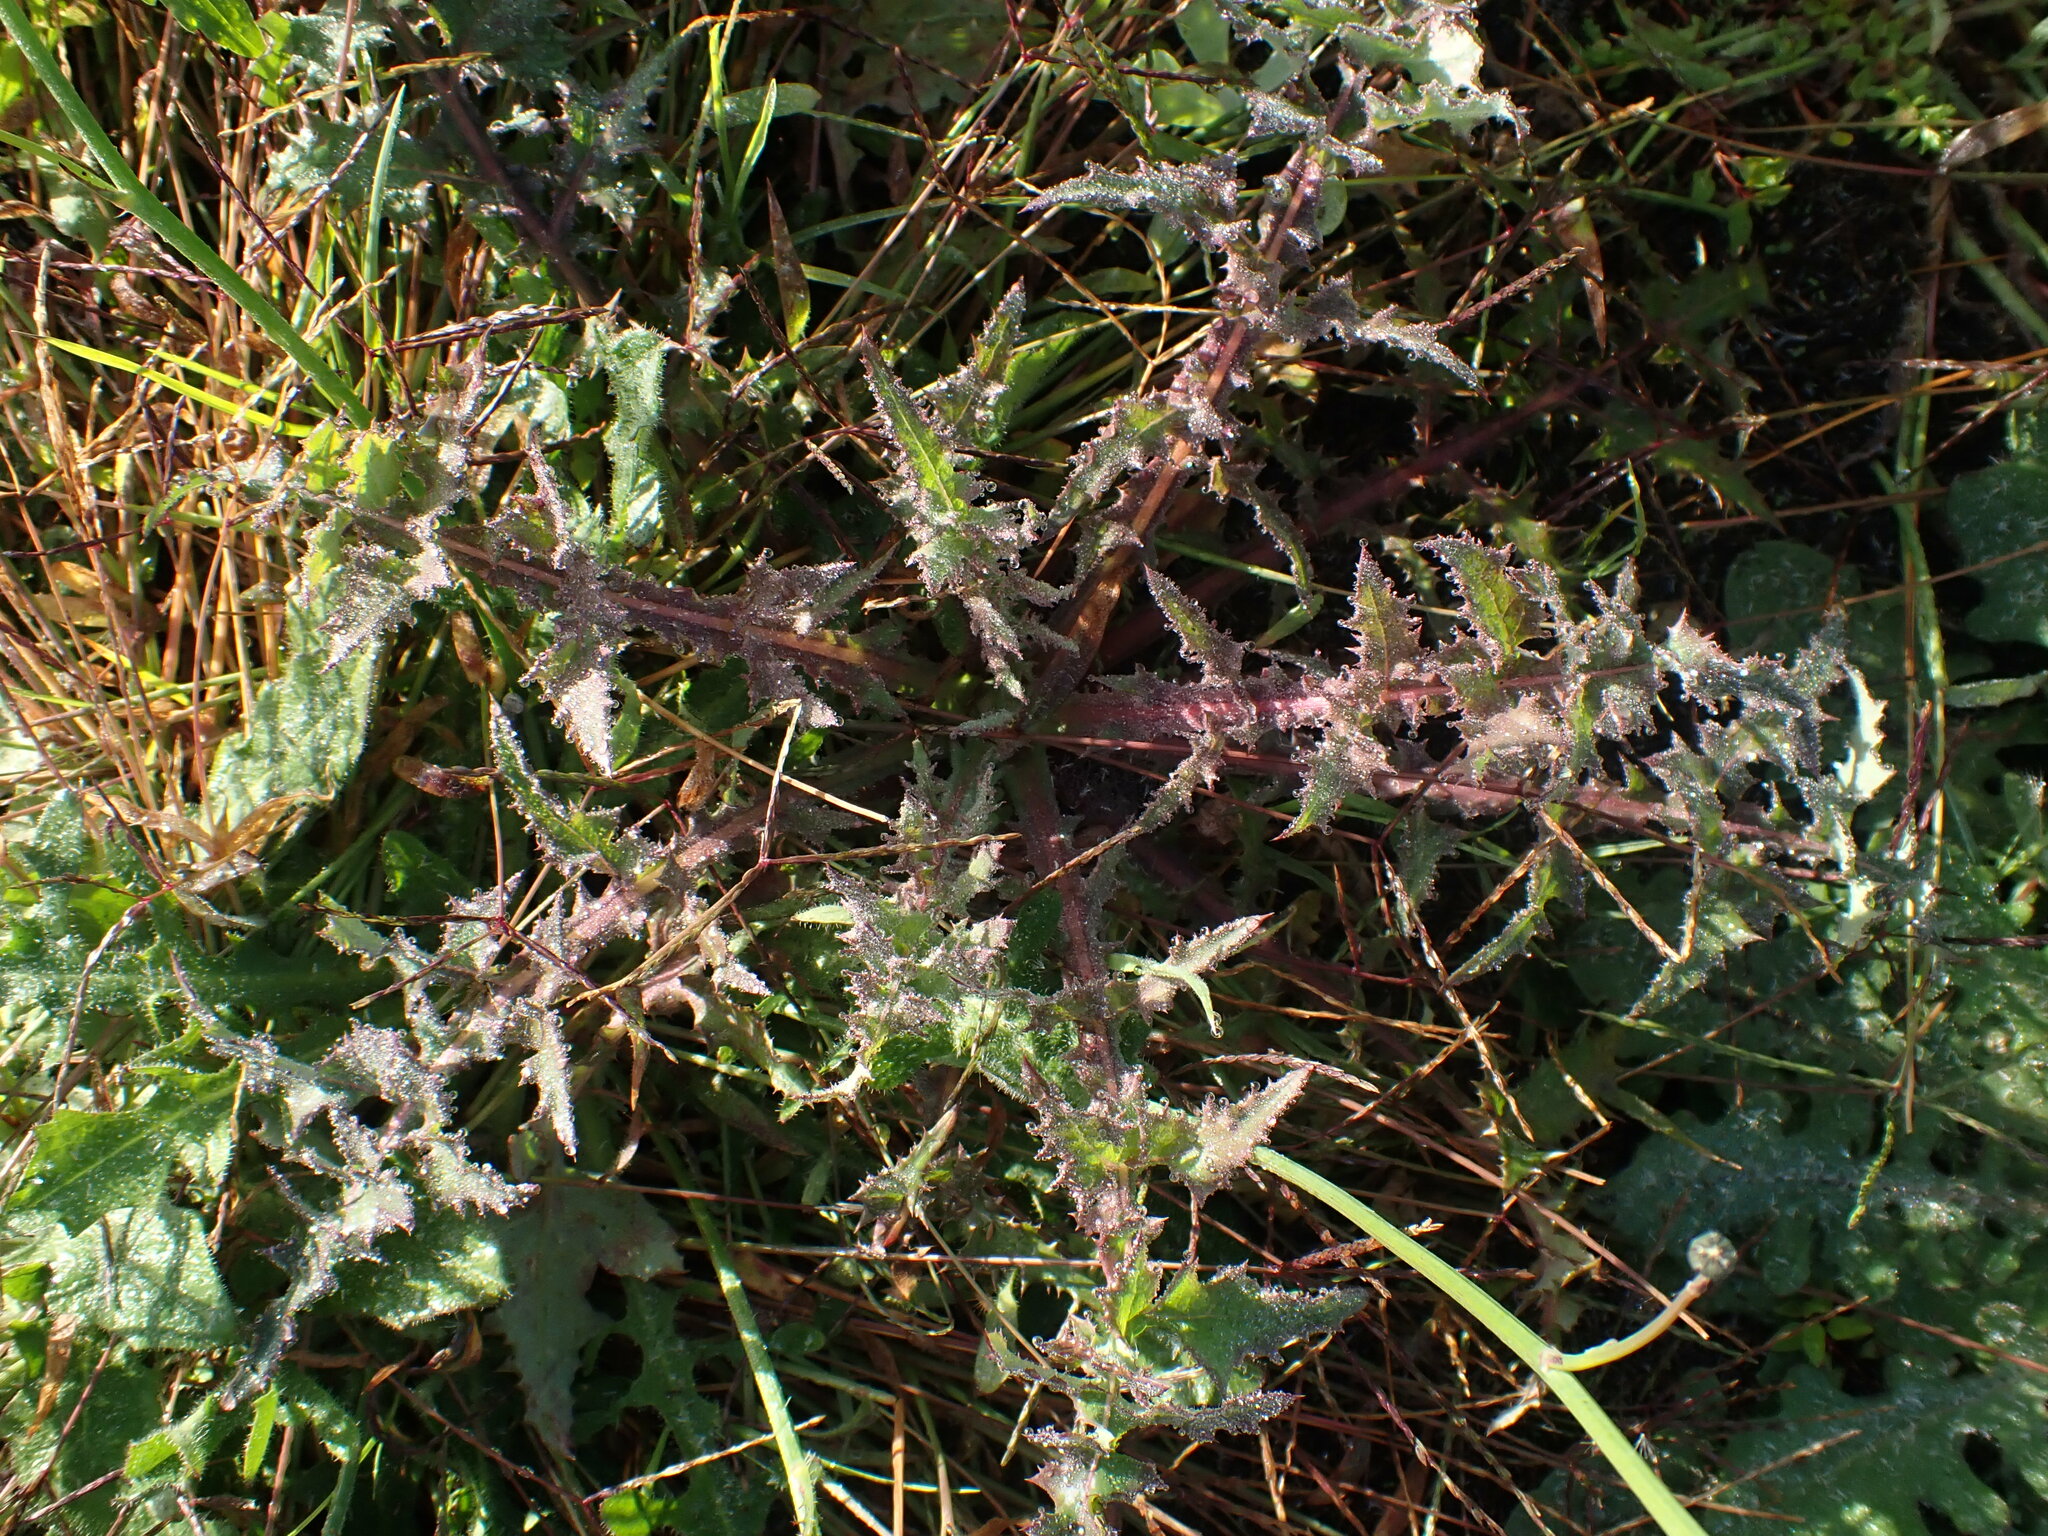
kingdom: Plantae
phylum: Tracheophyta
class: Magnoliopsida
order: Asterales
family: Asteraceae
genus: Sonchus
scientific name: Sonchus asper
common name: Prickly sow-thistle
